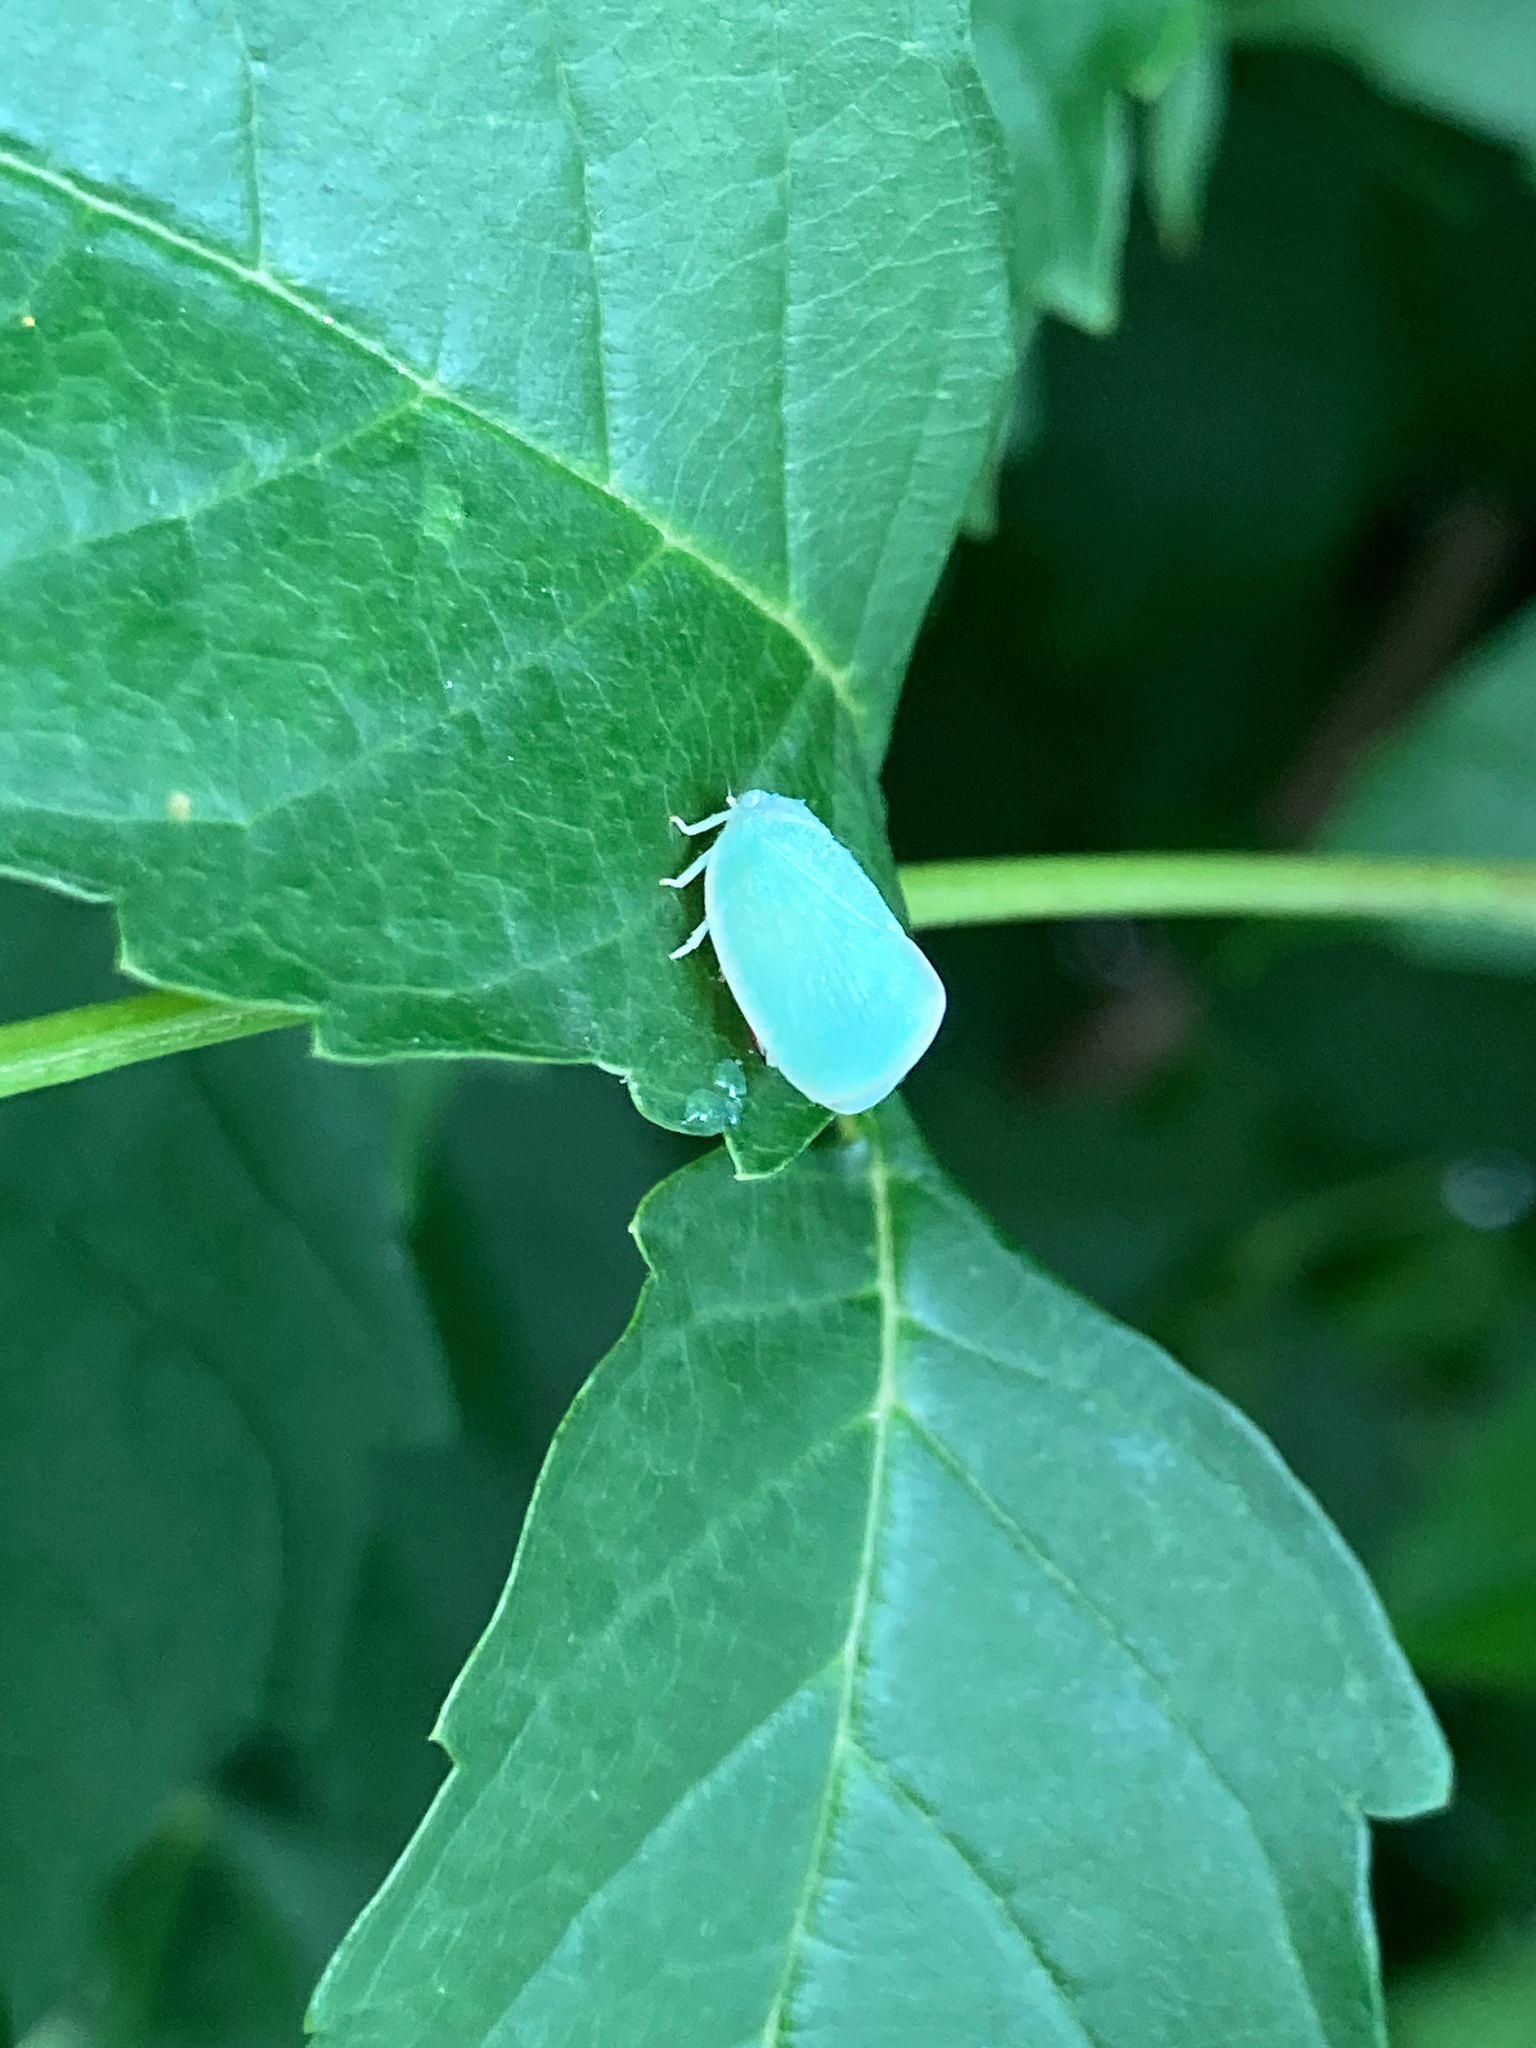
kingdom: Animalia
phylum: Arthropoda
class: Insecta
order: Hemiptera
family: Flatidae
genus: Ormenoides
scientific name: Ormenoides venusta
